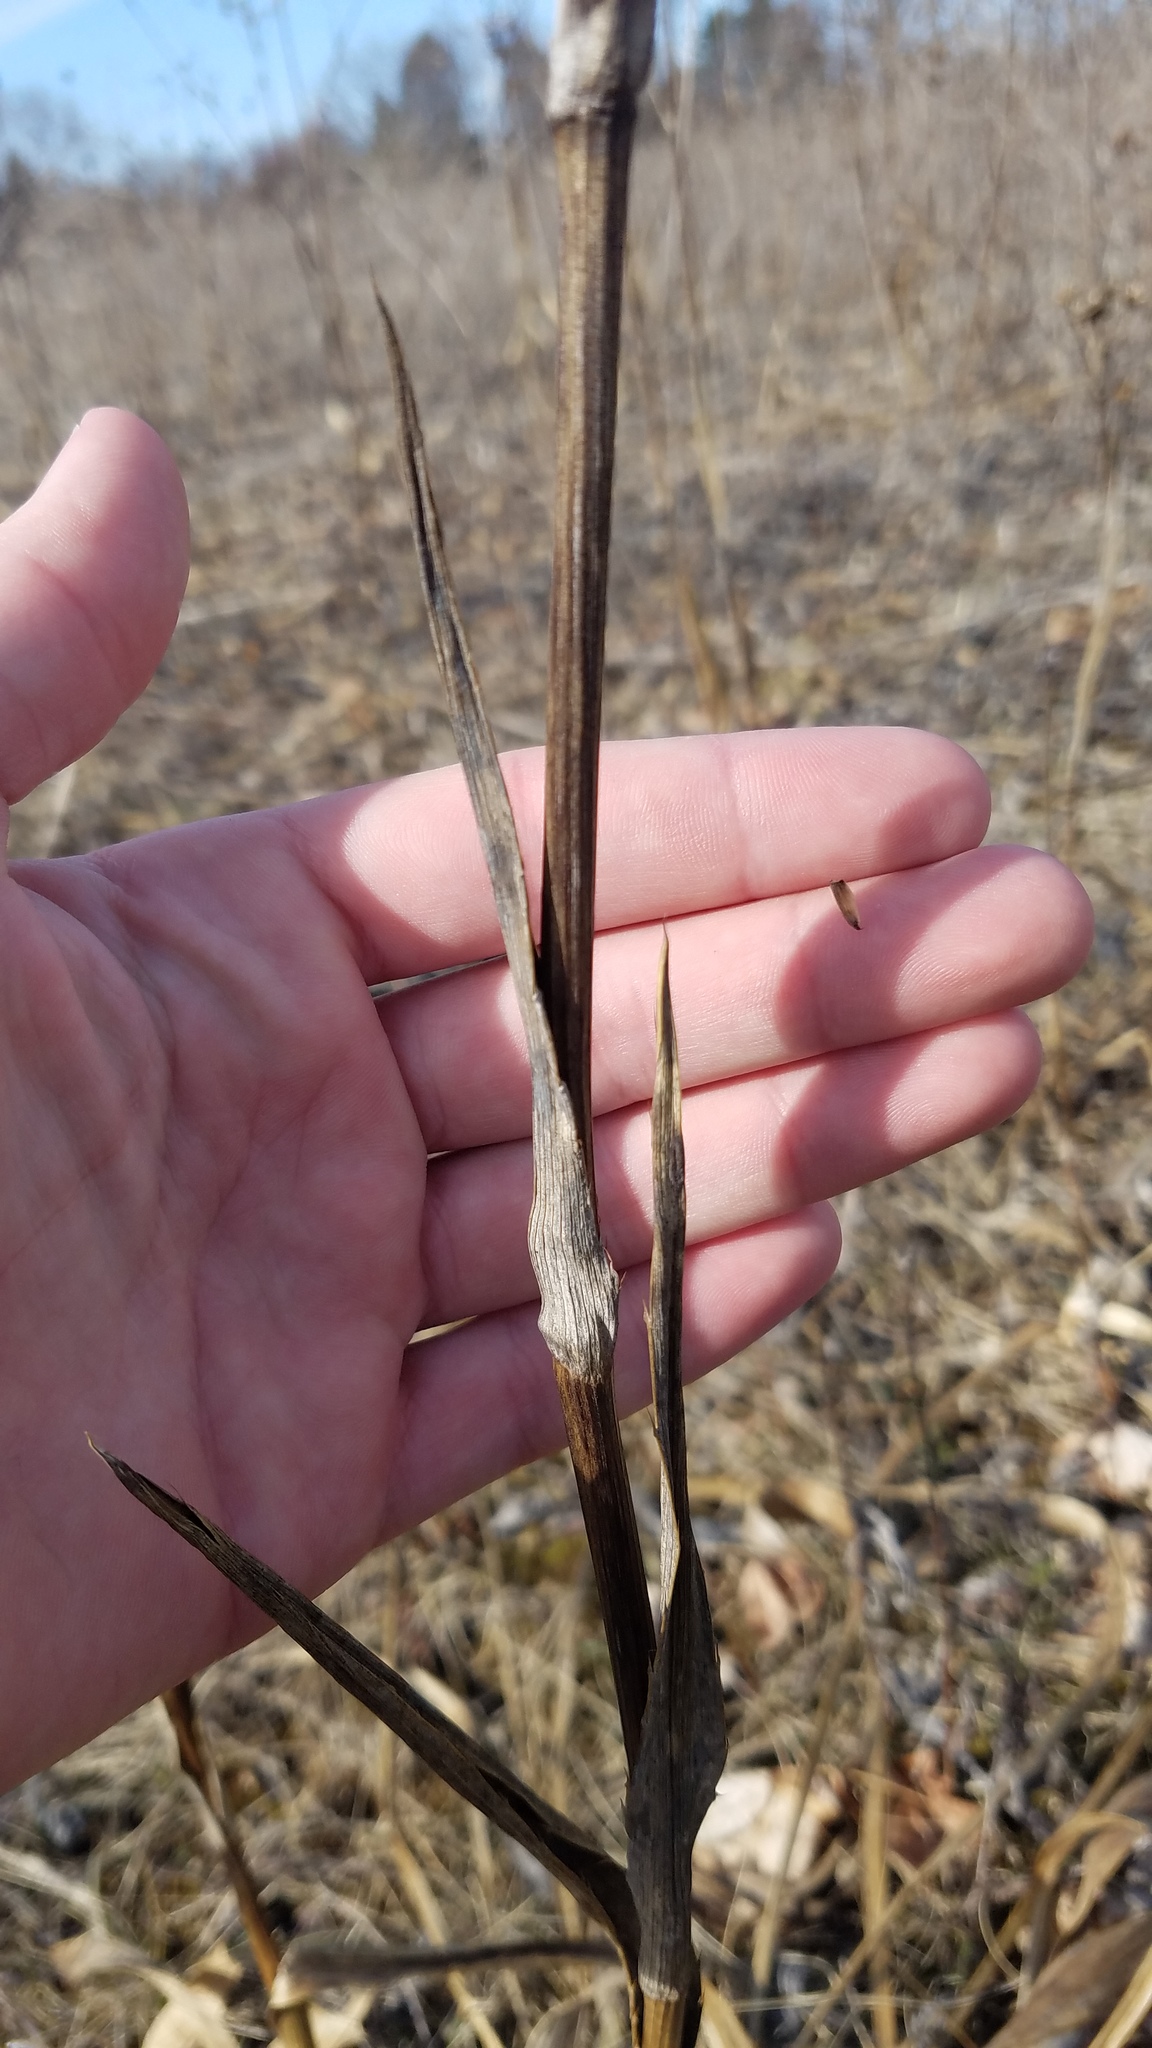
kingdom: Plantae
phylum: Tracheophyta
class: Magnoliopsida
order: Apiales
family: Apiaceae
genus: Eryngium
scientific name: Eryngium yuccifolium
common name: Button eryngo
